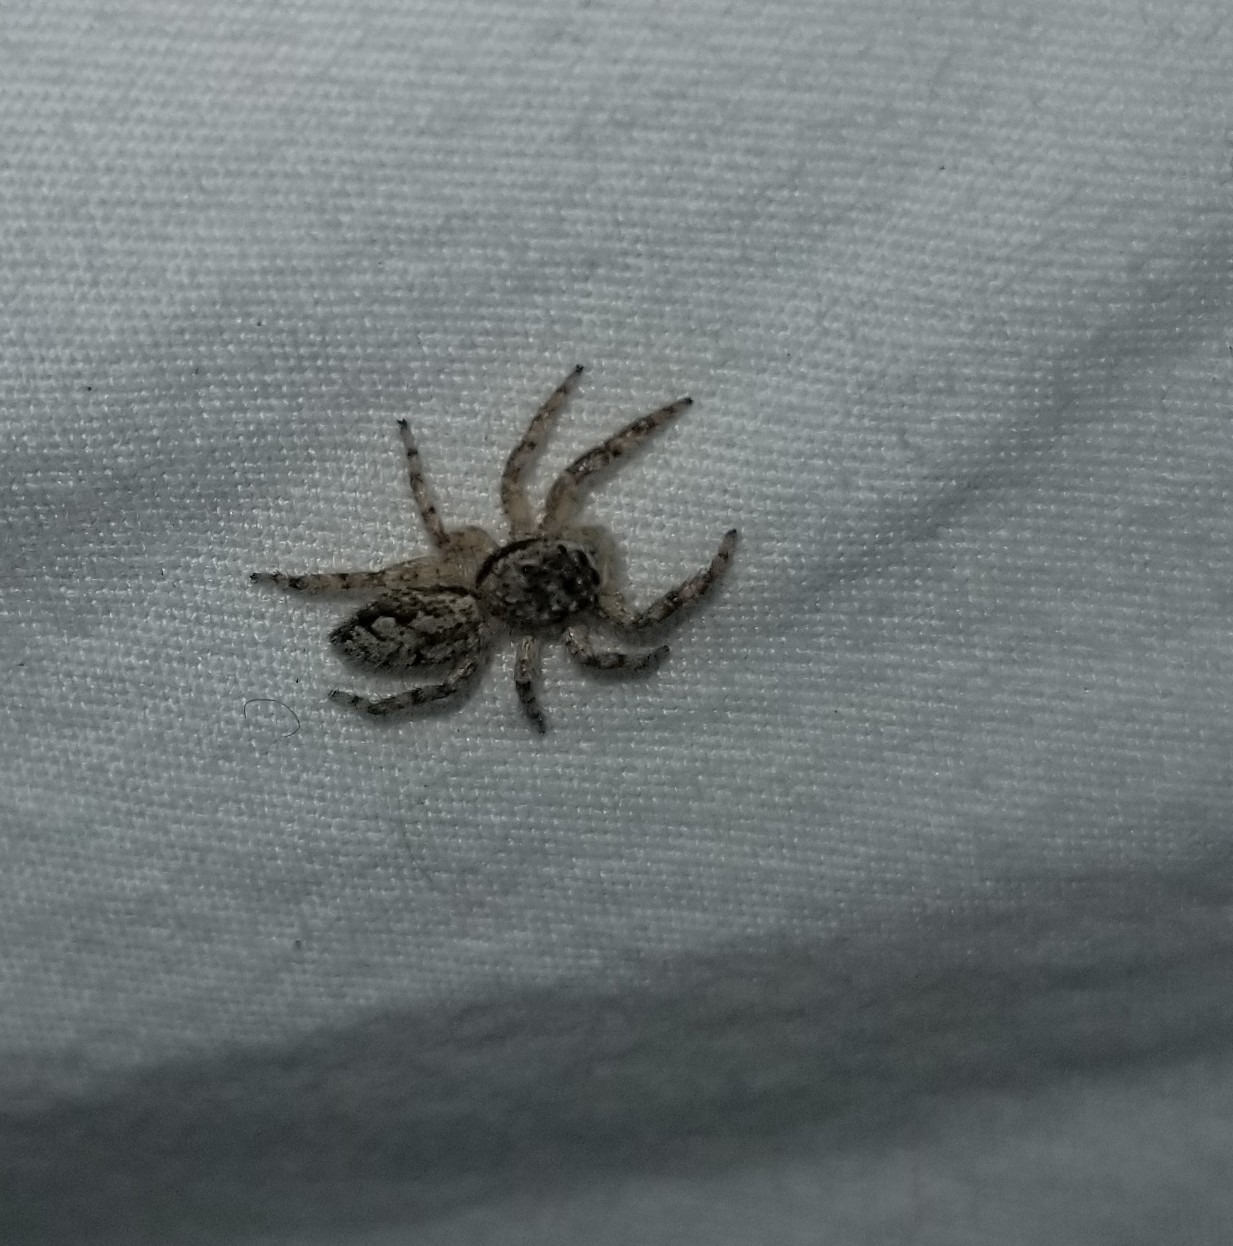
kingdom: Animalia
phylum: Arthropoda
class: Arachnida
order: Araneae
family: Salticidae
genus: Platycryptus
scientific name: Platycryptus undatus
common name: Tan jumping spider
